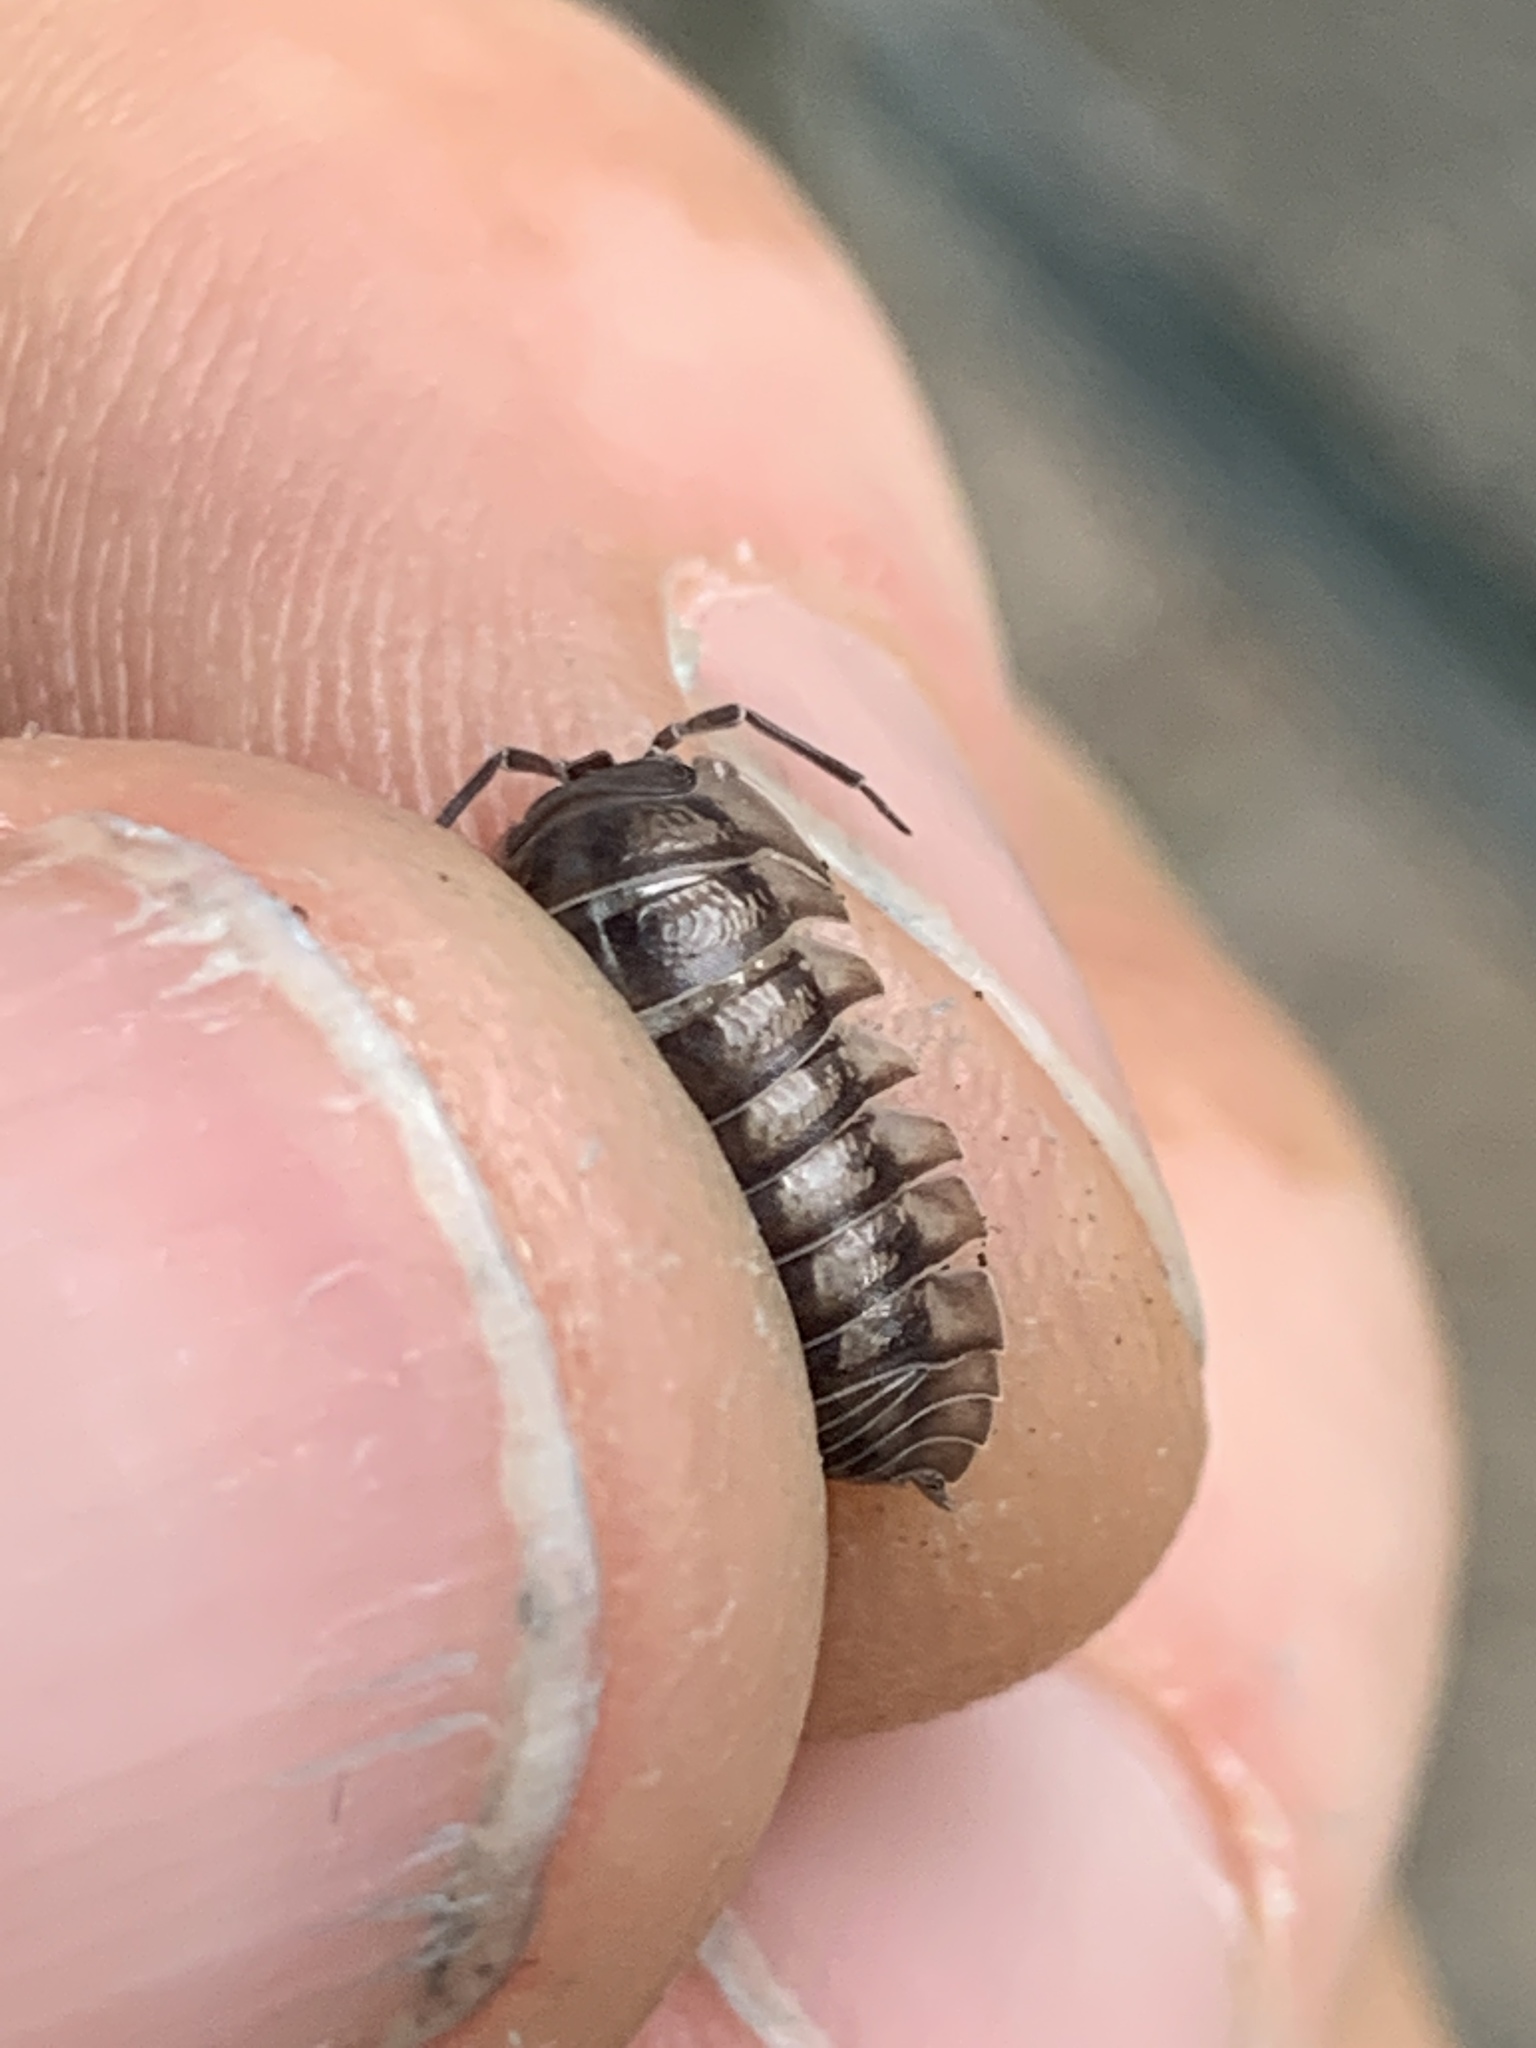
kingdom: Animalia
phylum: Arthropoda
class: Malacostraca
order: Isopoda
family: Armadillidiidae
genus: Armadillidium
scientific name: Armadillidium nasatum
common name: Isopod
